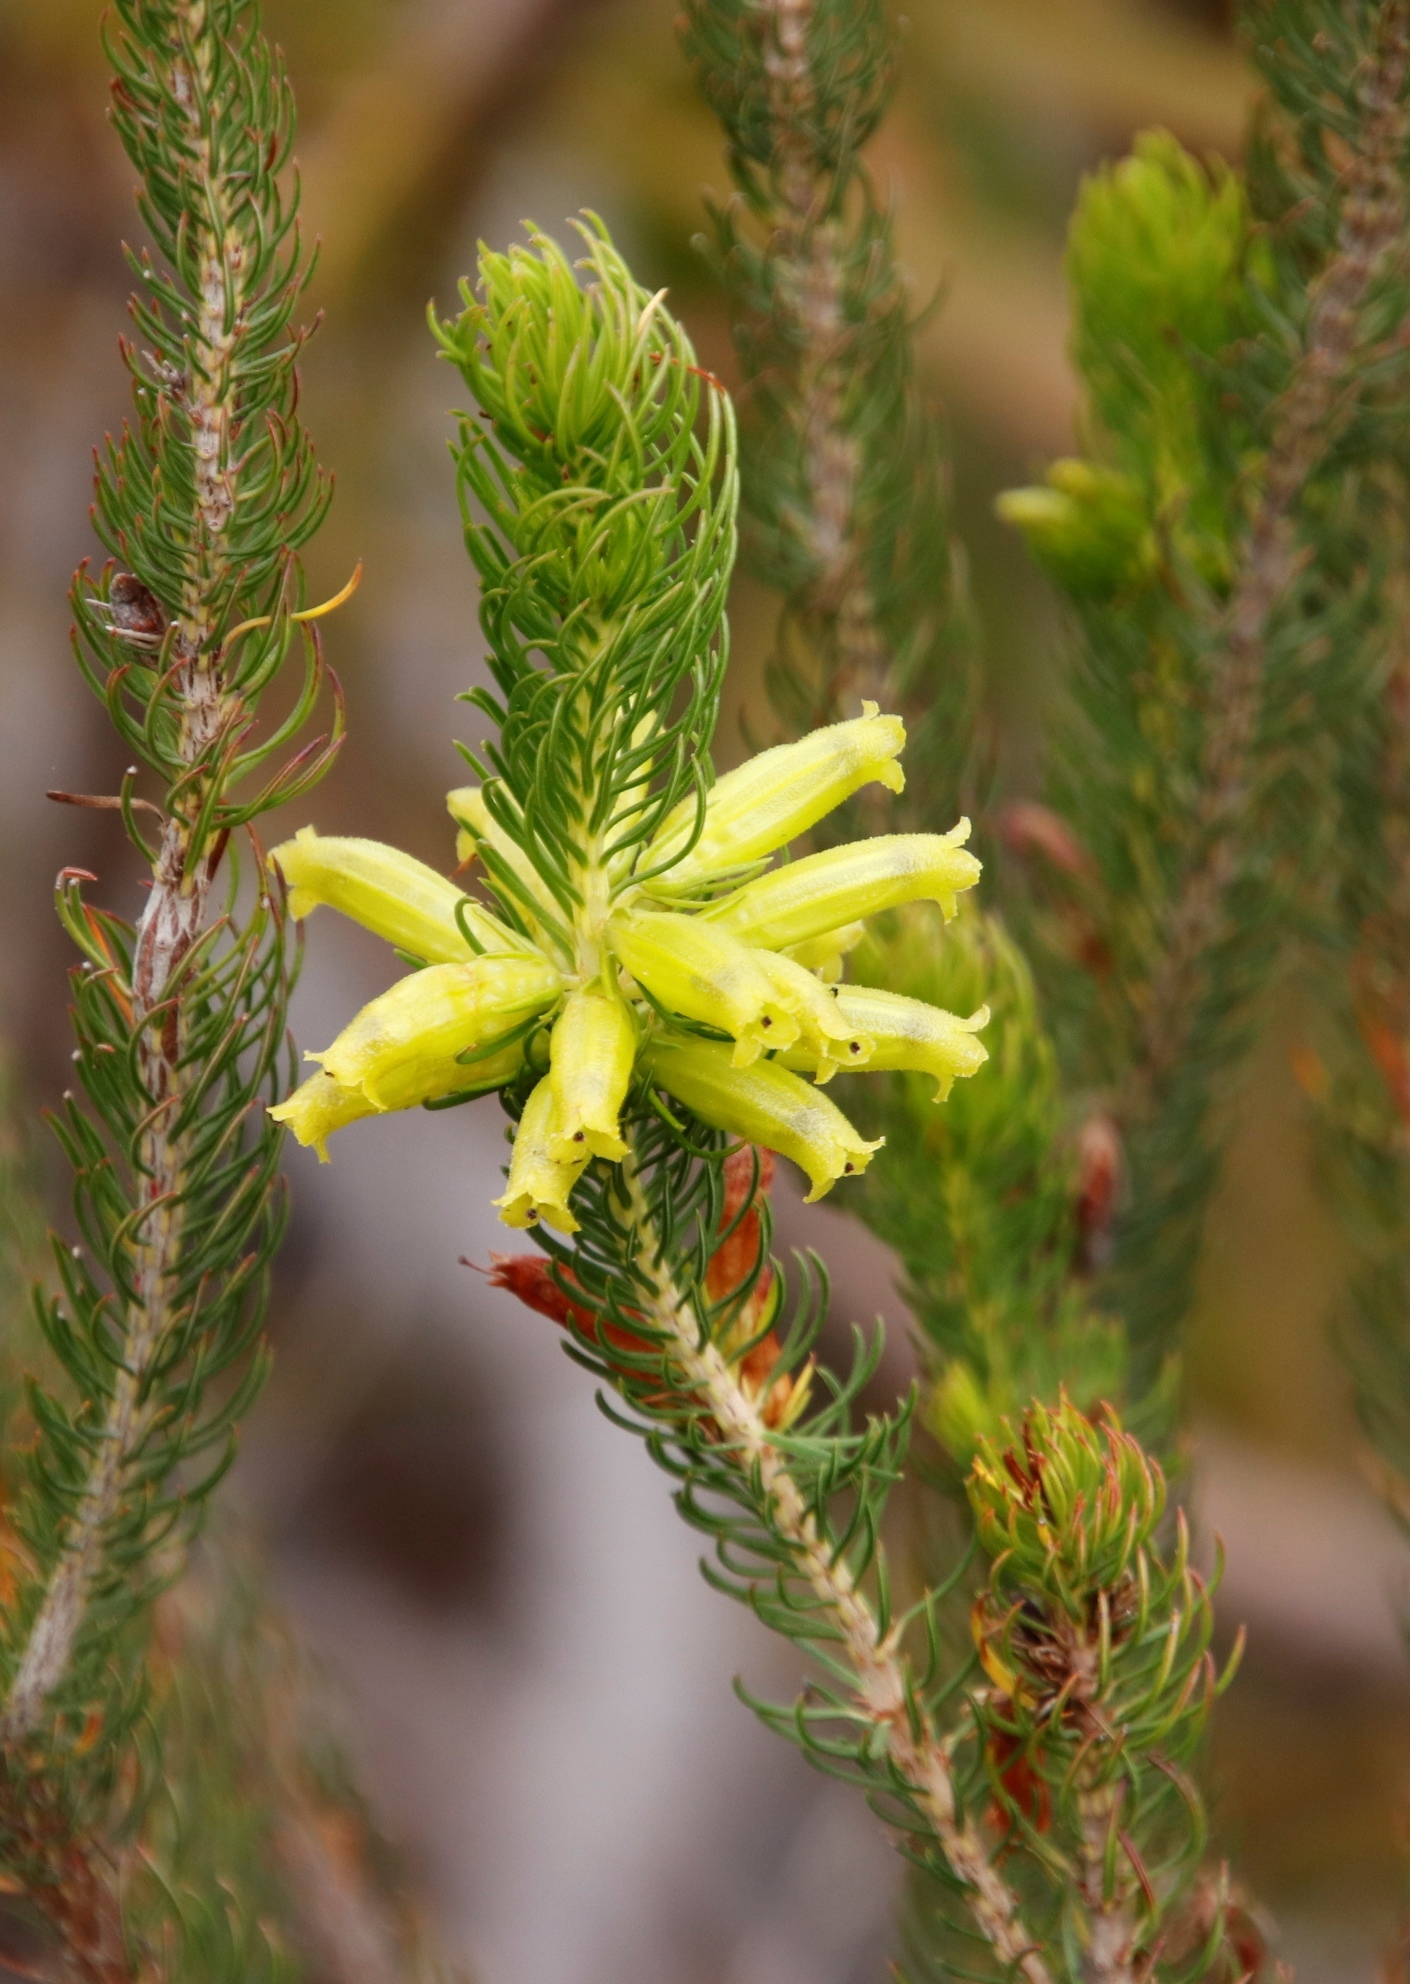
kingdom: Plantae
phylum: Tracheophyta
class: Magnoliopsida
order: Ericales
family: Ericaceae
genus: Erica
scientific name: Erica viscaria
